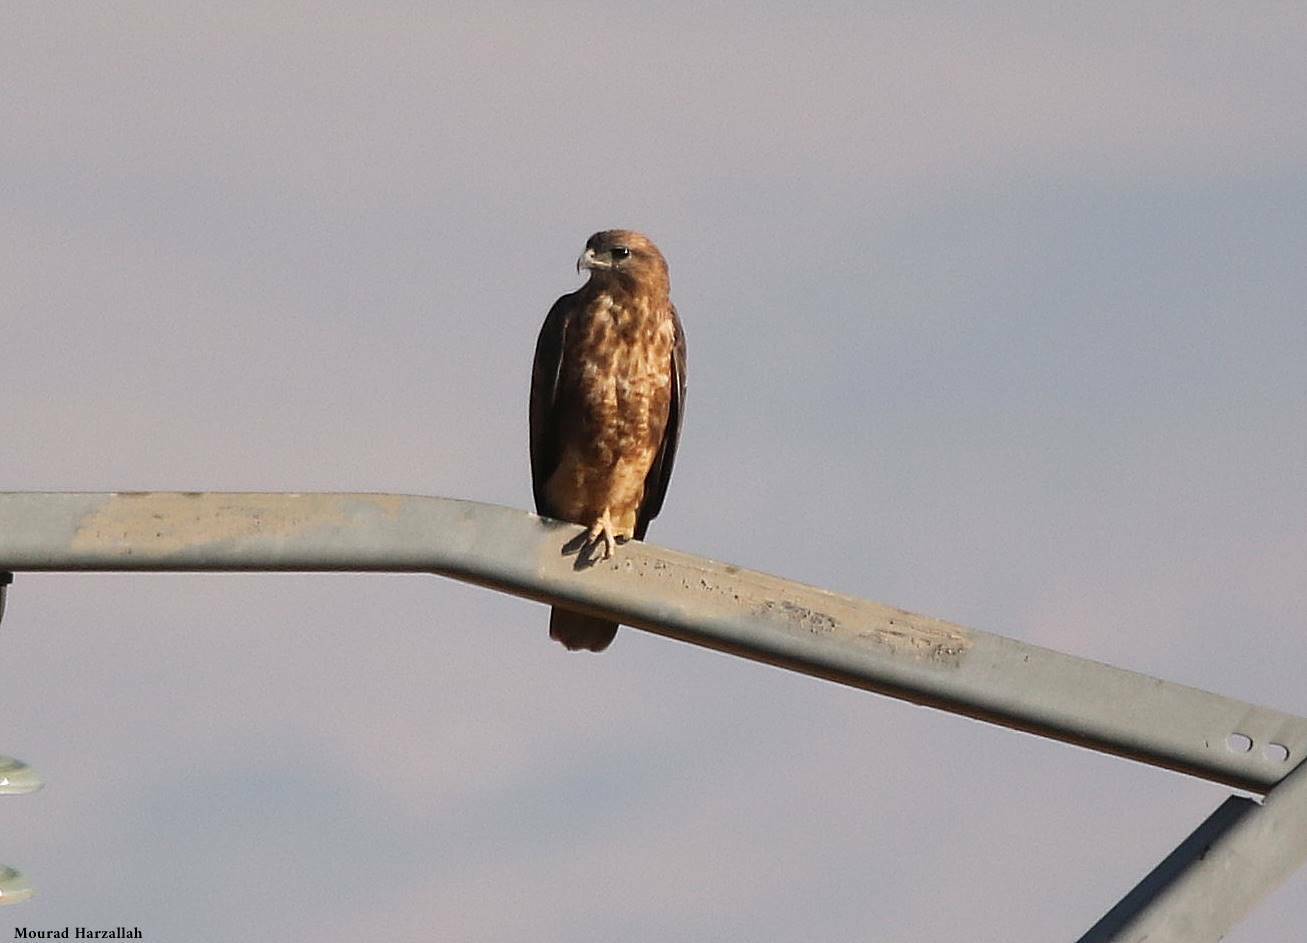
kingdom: Animalia
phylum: Chordata
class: Aves
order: Accipitriformes
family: Accipitridae
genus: Buteo
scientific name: Buteo rufinus
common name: Long-legged buzzard
